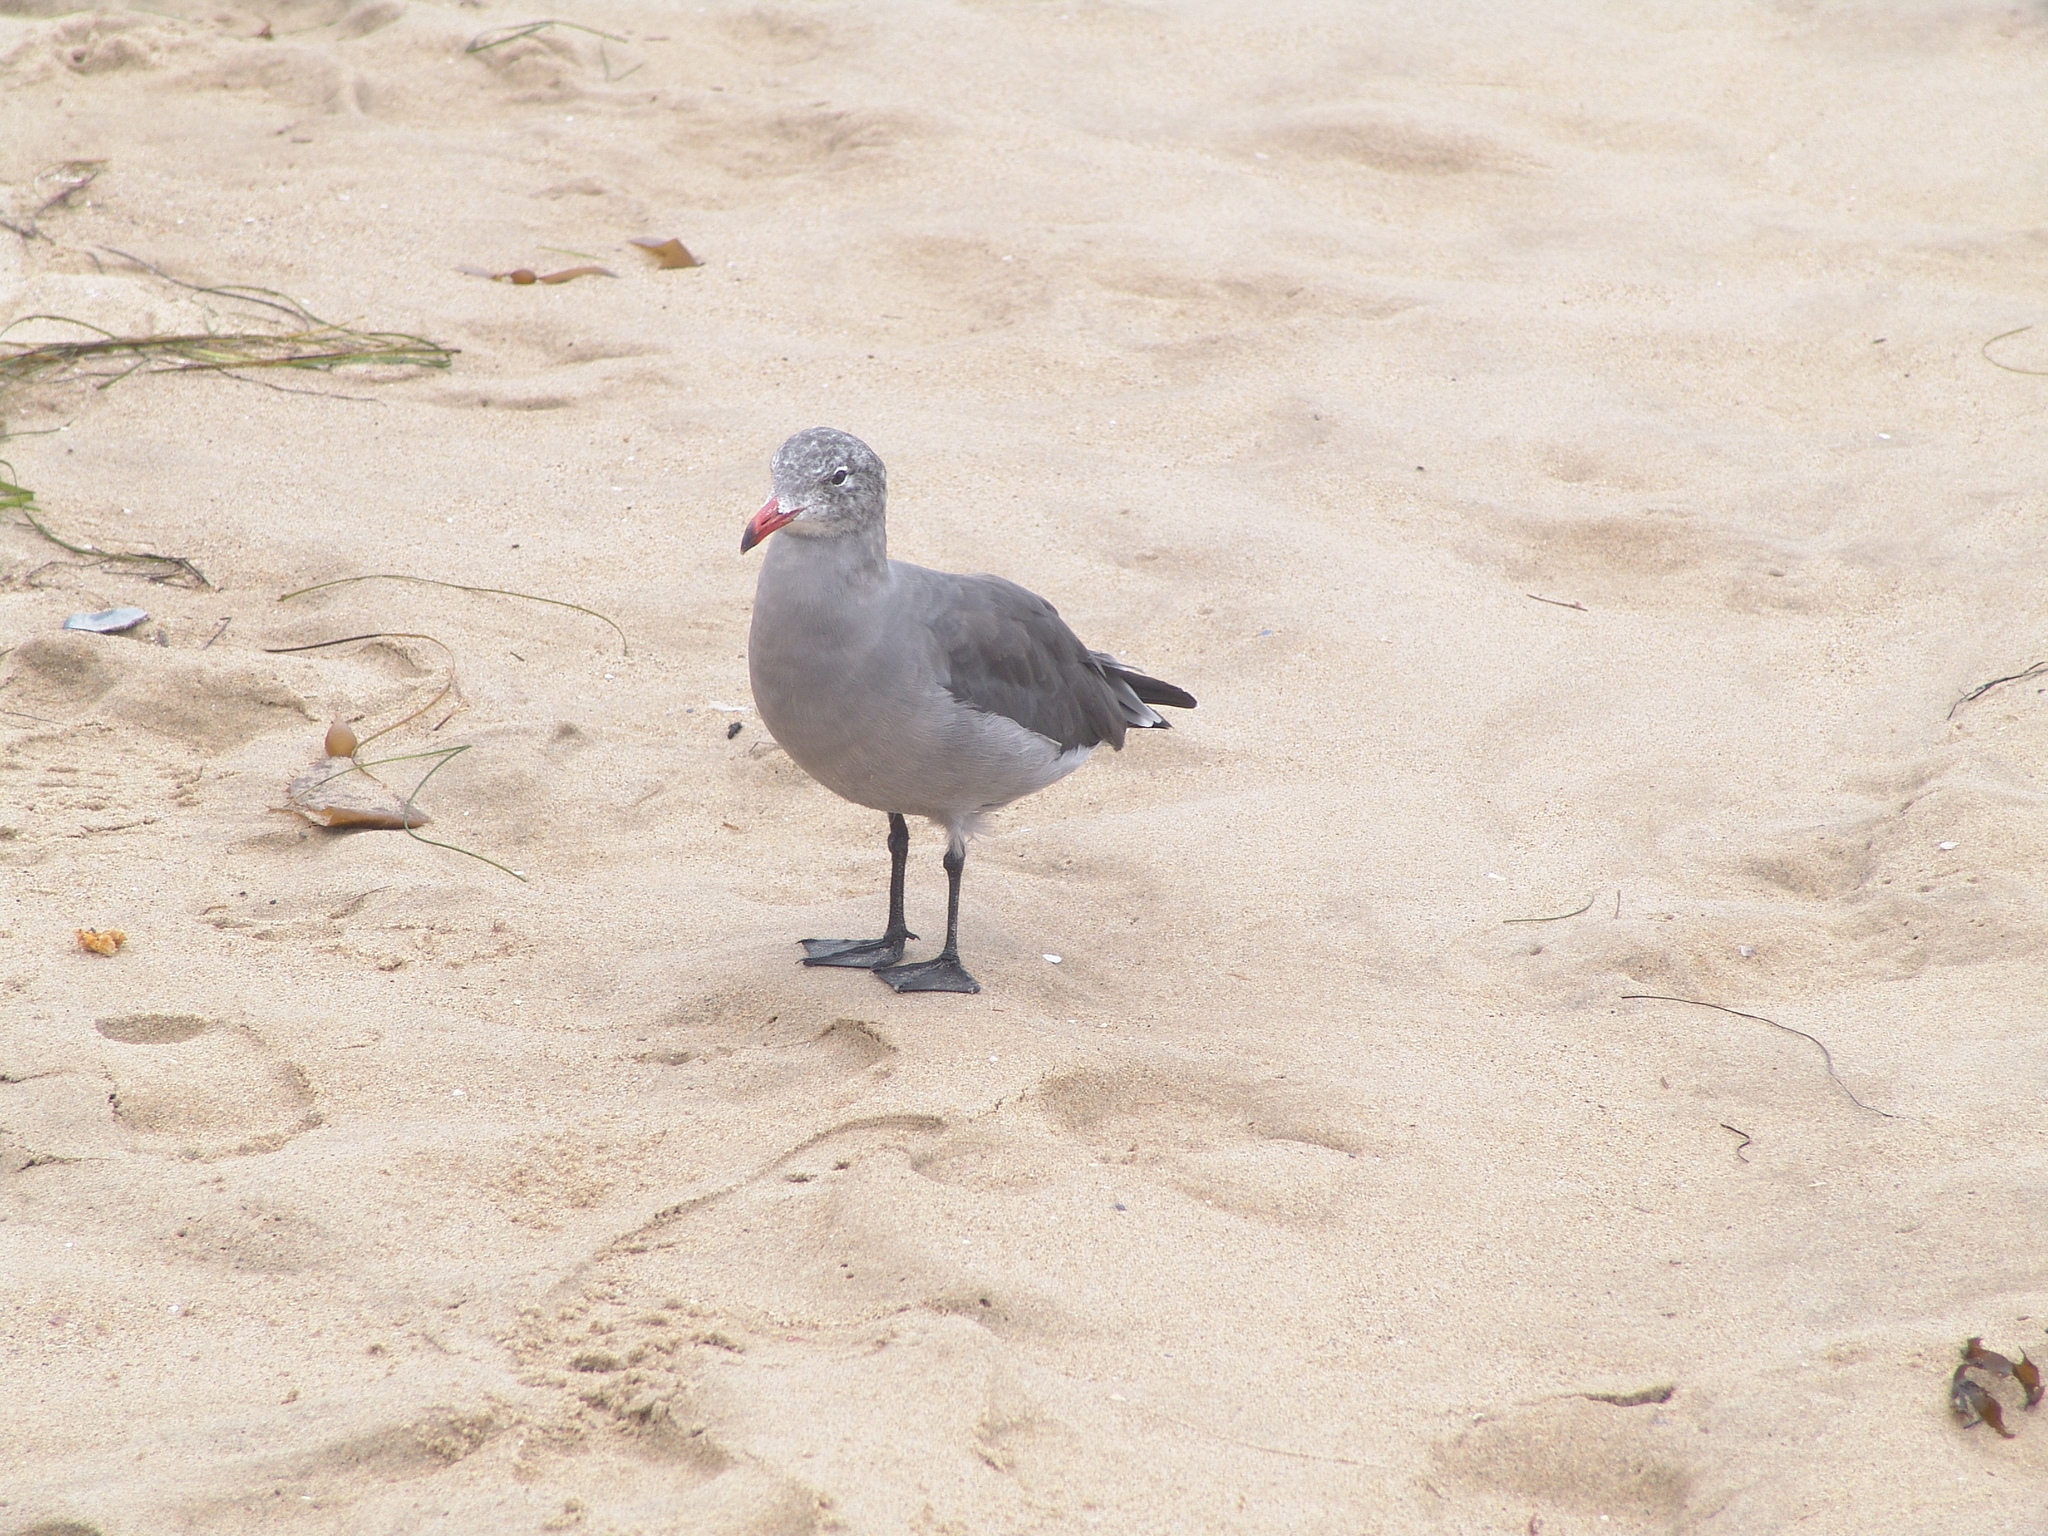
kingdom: Animalia
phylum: Chordata
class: Aves
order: Charadriiformes
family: Laridae
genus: Larus
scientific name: Larus heermanni
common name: Heermann's gull
